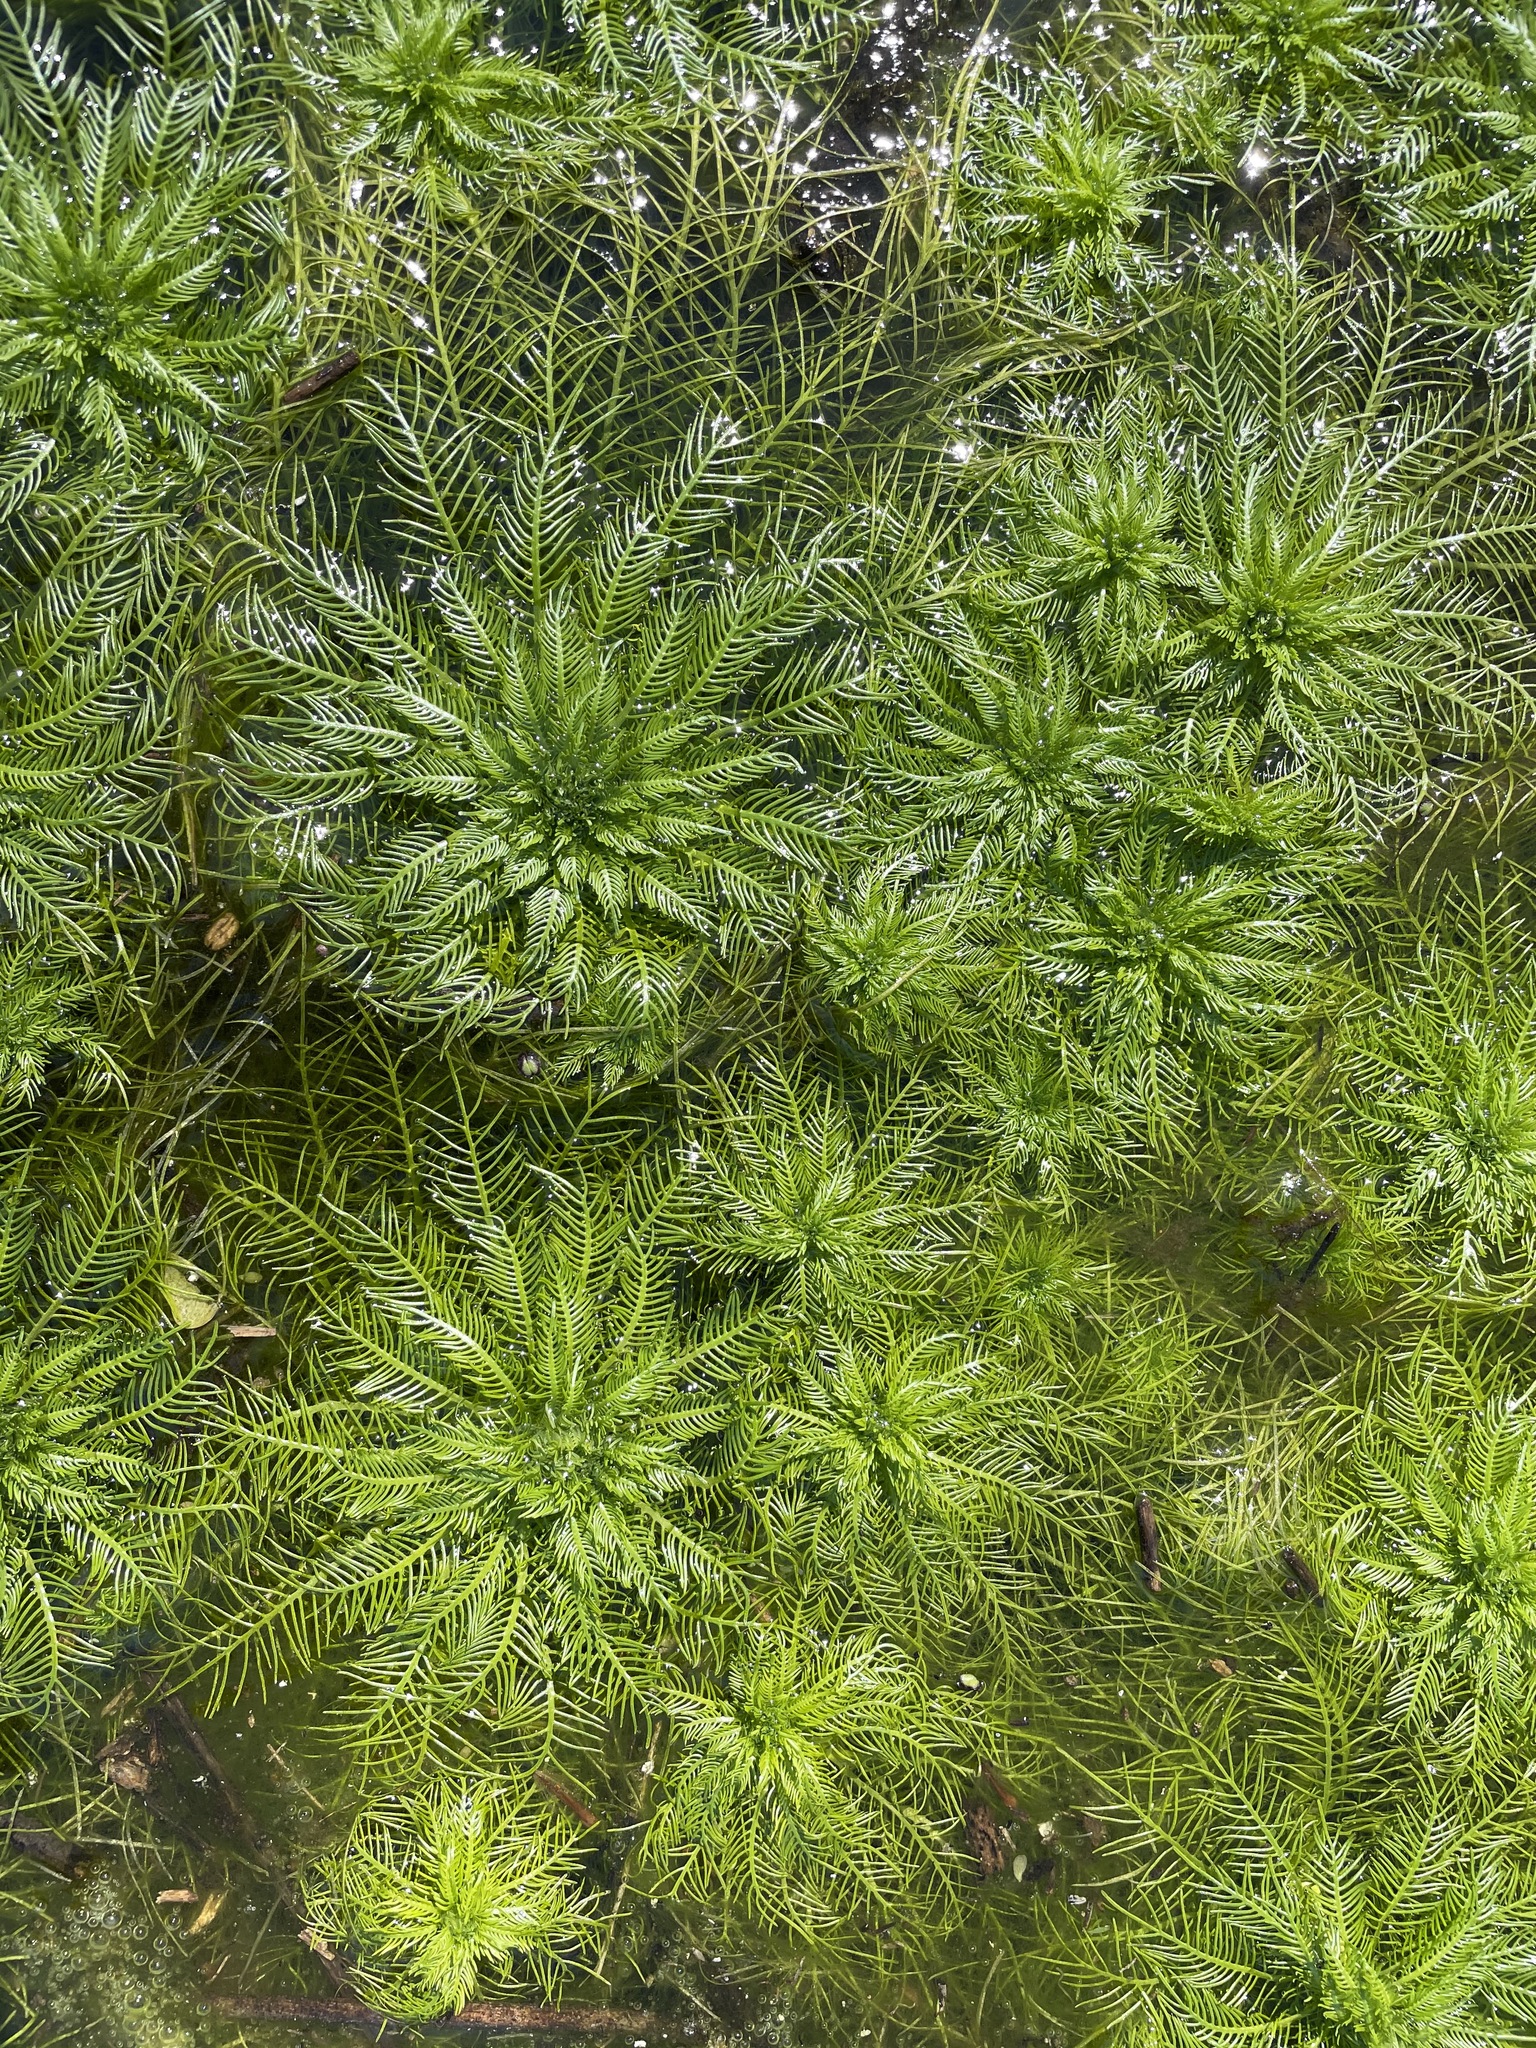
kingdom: Plantae
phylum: Tracheophyta
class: Magnoliopsida
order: Ericales
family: Primulaceae
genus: Hottonia
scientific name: Hottonia inflata
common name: American featherfoil
